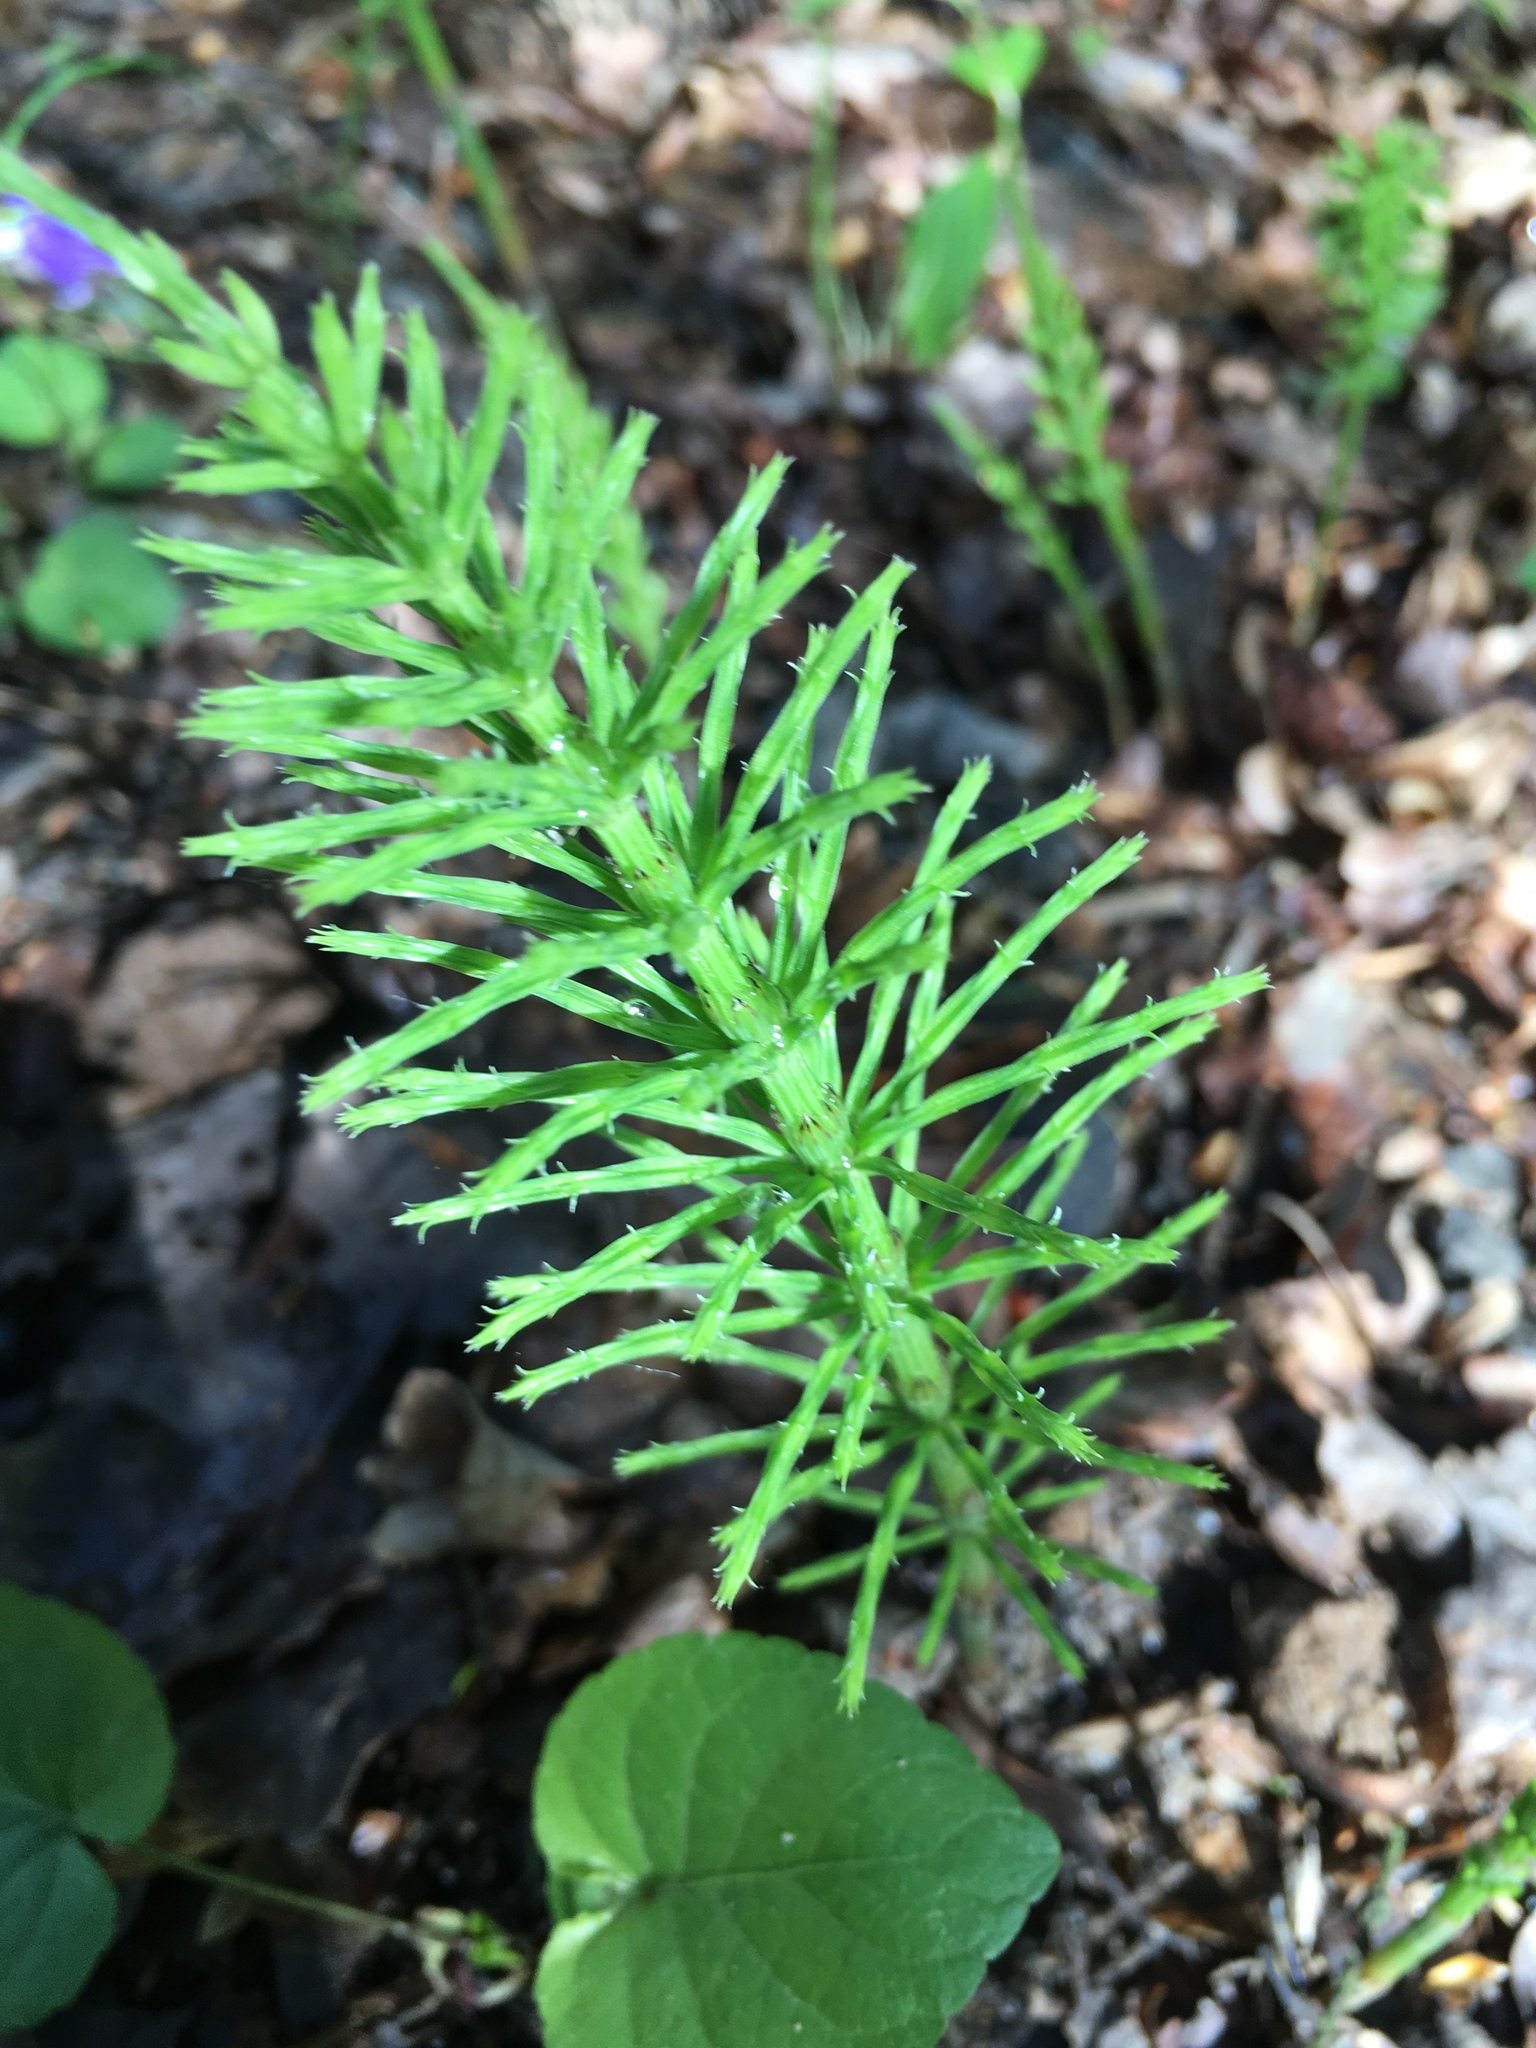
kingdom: Plantae
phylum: Tracheophyta
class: Polypodiopsida
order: Equisetales
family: Equisetaceae
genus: Equisetum
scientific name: Equisetum arvense
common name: Field horsetail
